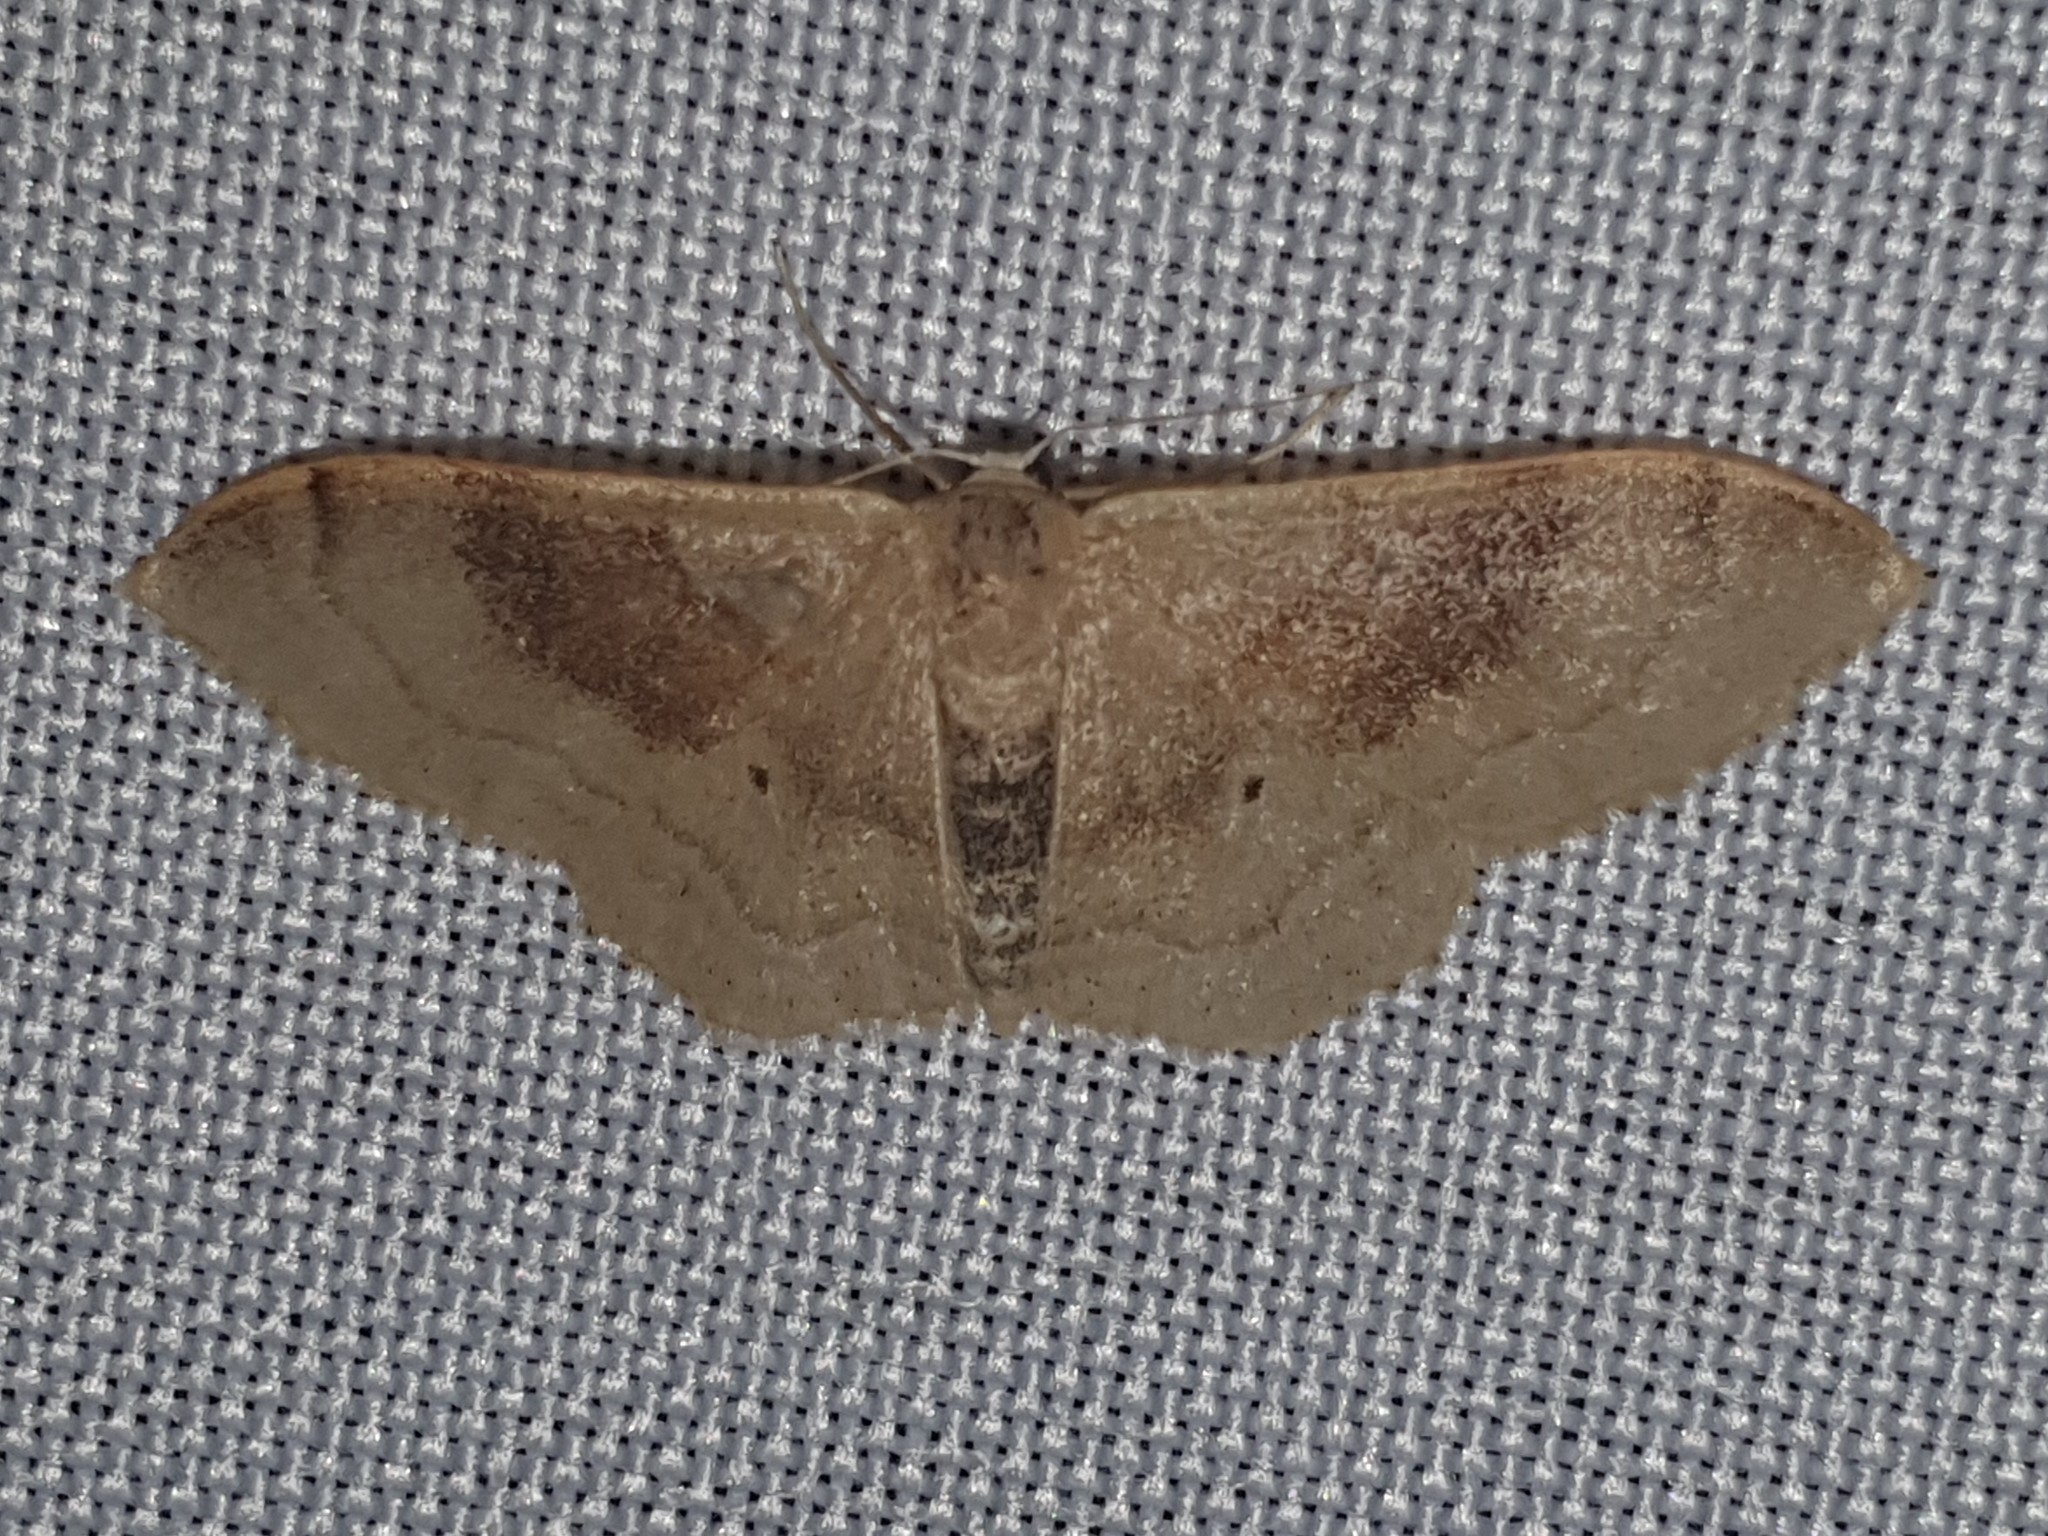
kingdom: Animalia
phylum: Arthropoda
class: Insecta
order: Lepidoptera
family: Geometridae
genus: Idaea
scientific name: Idaea degeneraria
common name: Portland ribbon wave
